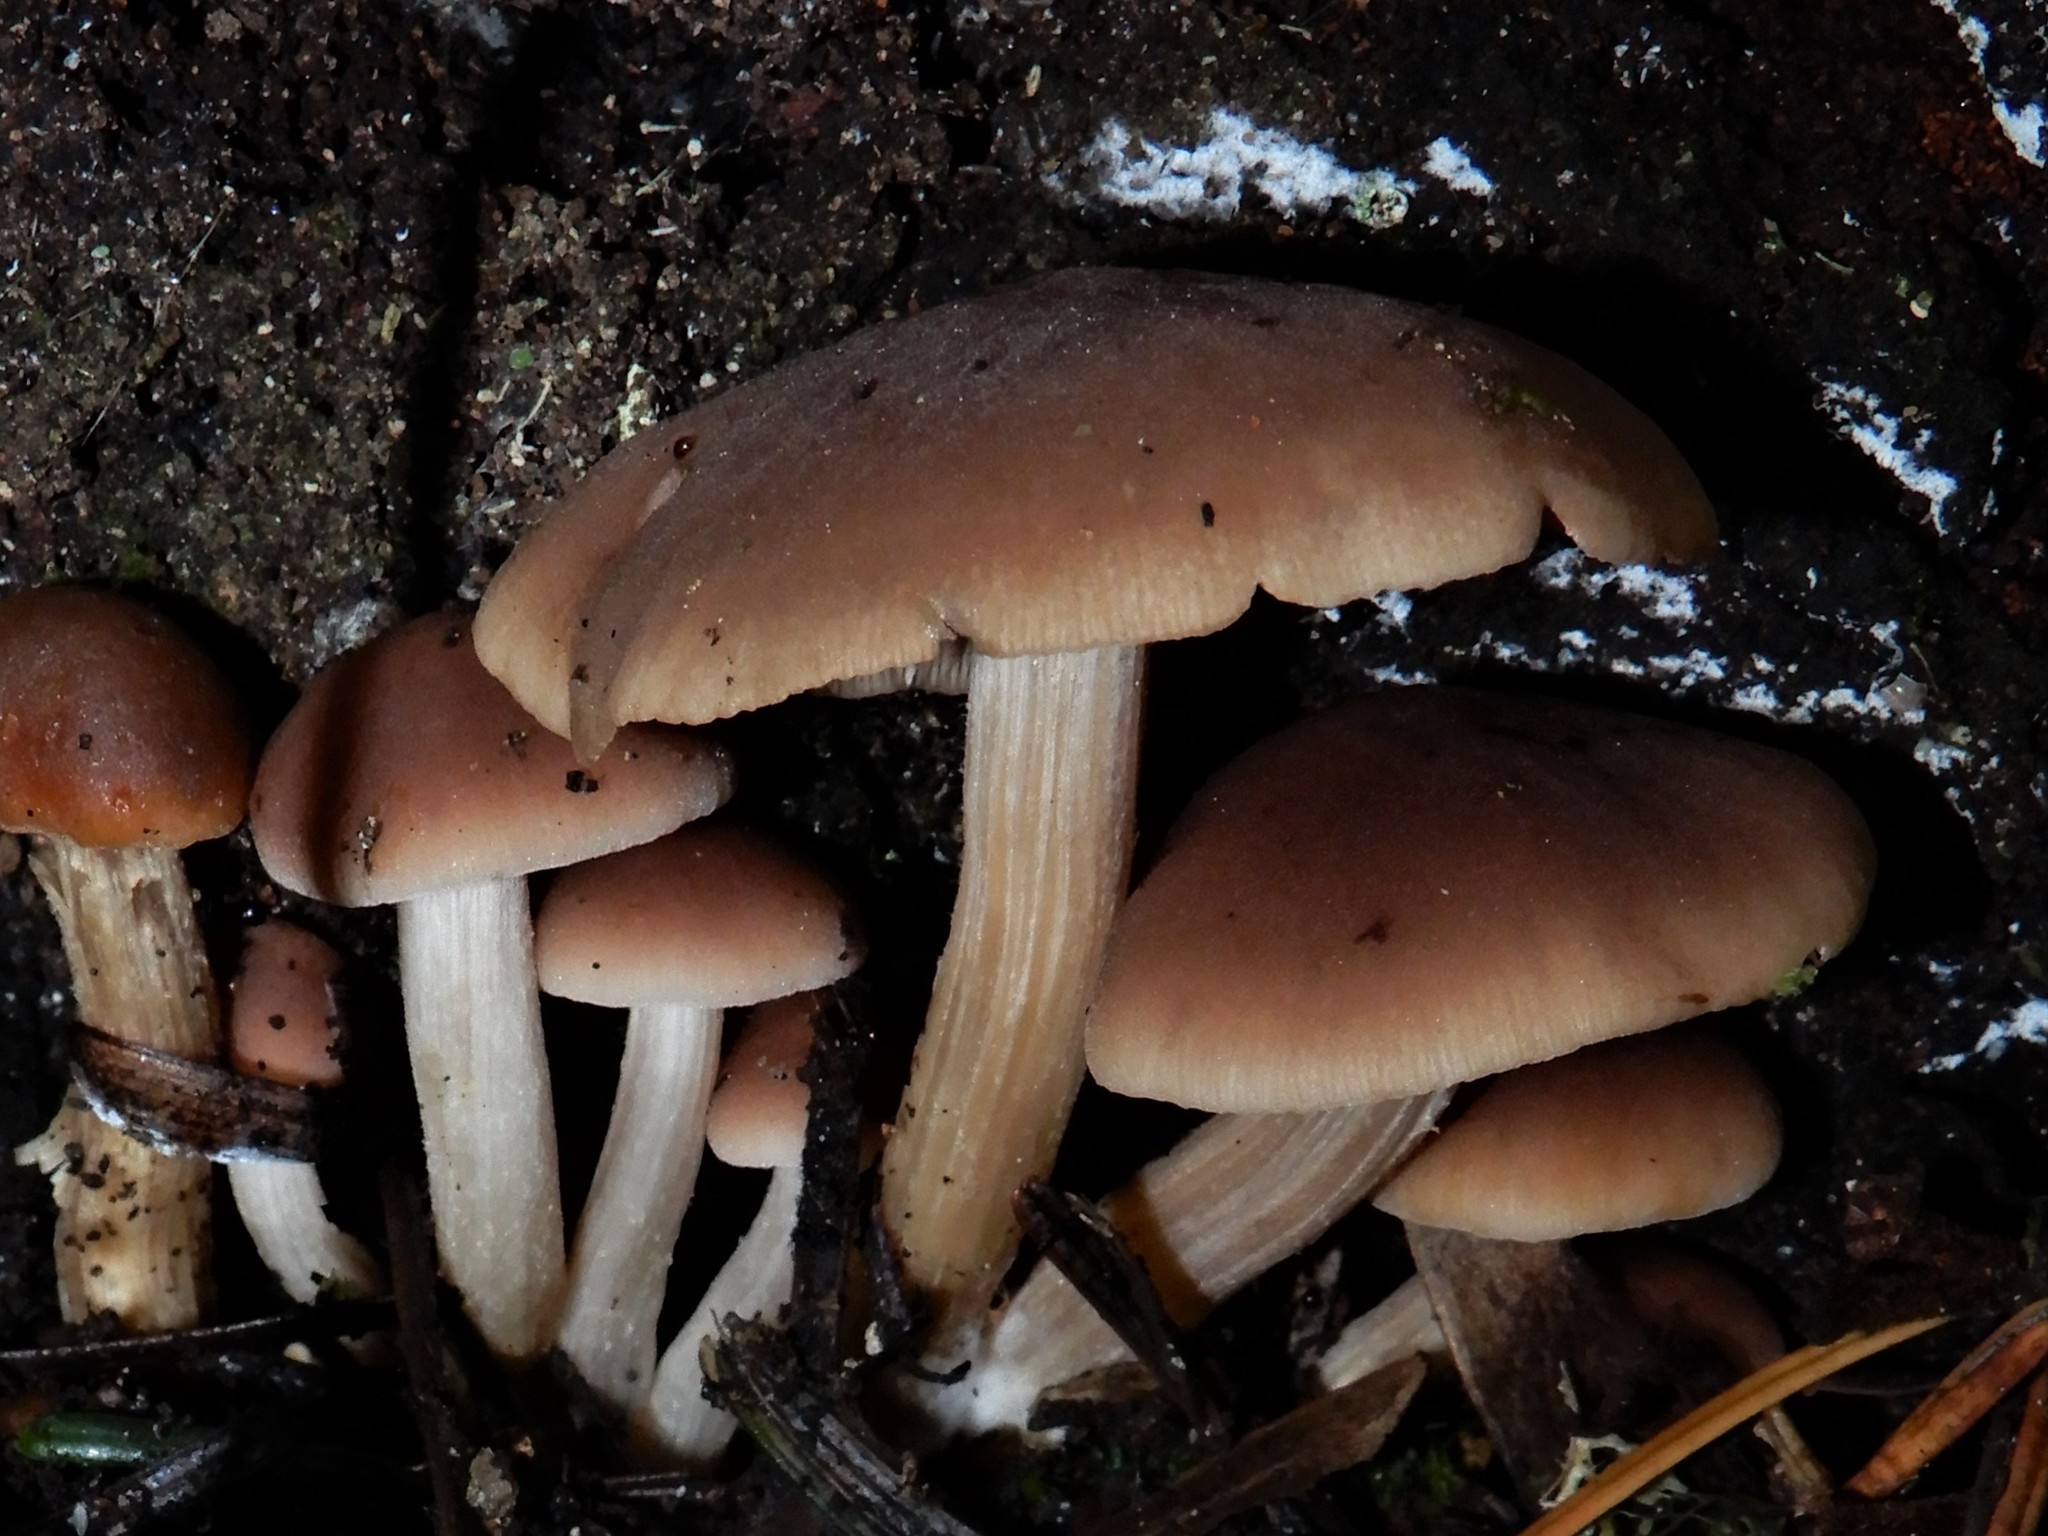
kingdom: Fungi
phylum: Basidiomycota
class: Agaricomycetes
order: Agaricales
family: Psathyrellaceae
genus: Homophron
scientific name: Homophron spadiceum
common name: Chestnut brittlestem
